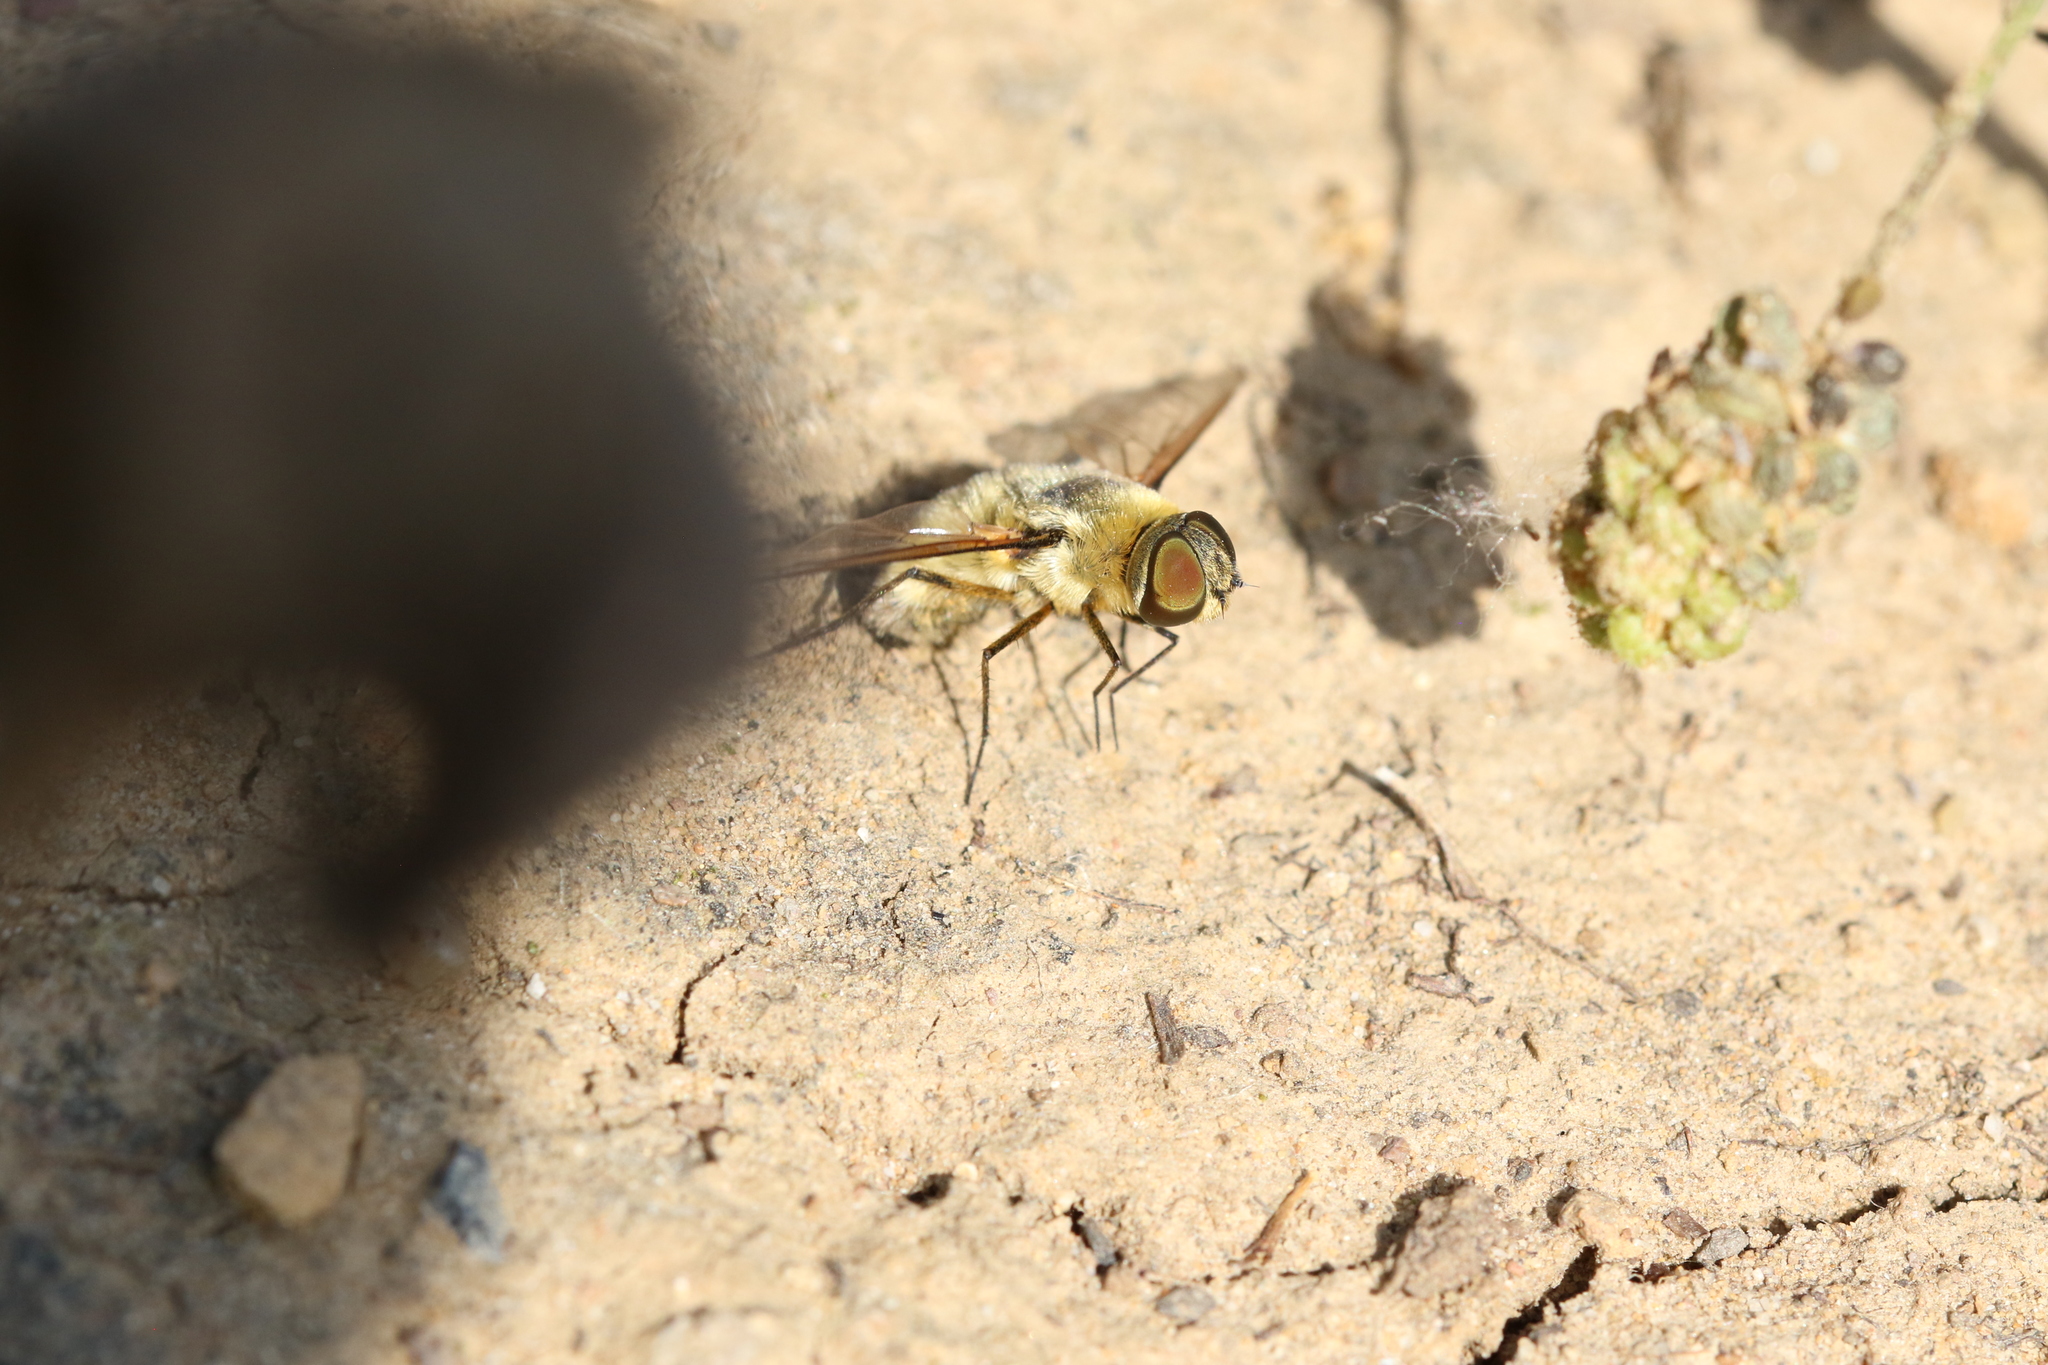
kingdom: Animalia
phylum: Arthropoda
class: Insecta
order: Diptera
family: Bombyliidae
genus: Villa
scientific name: Villa hottentotta
